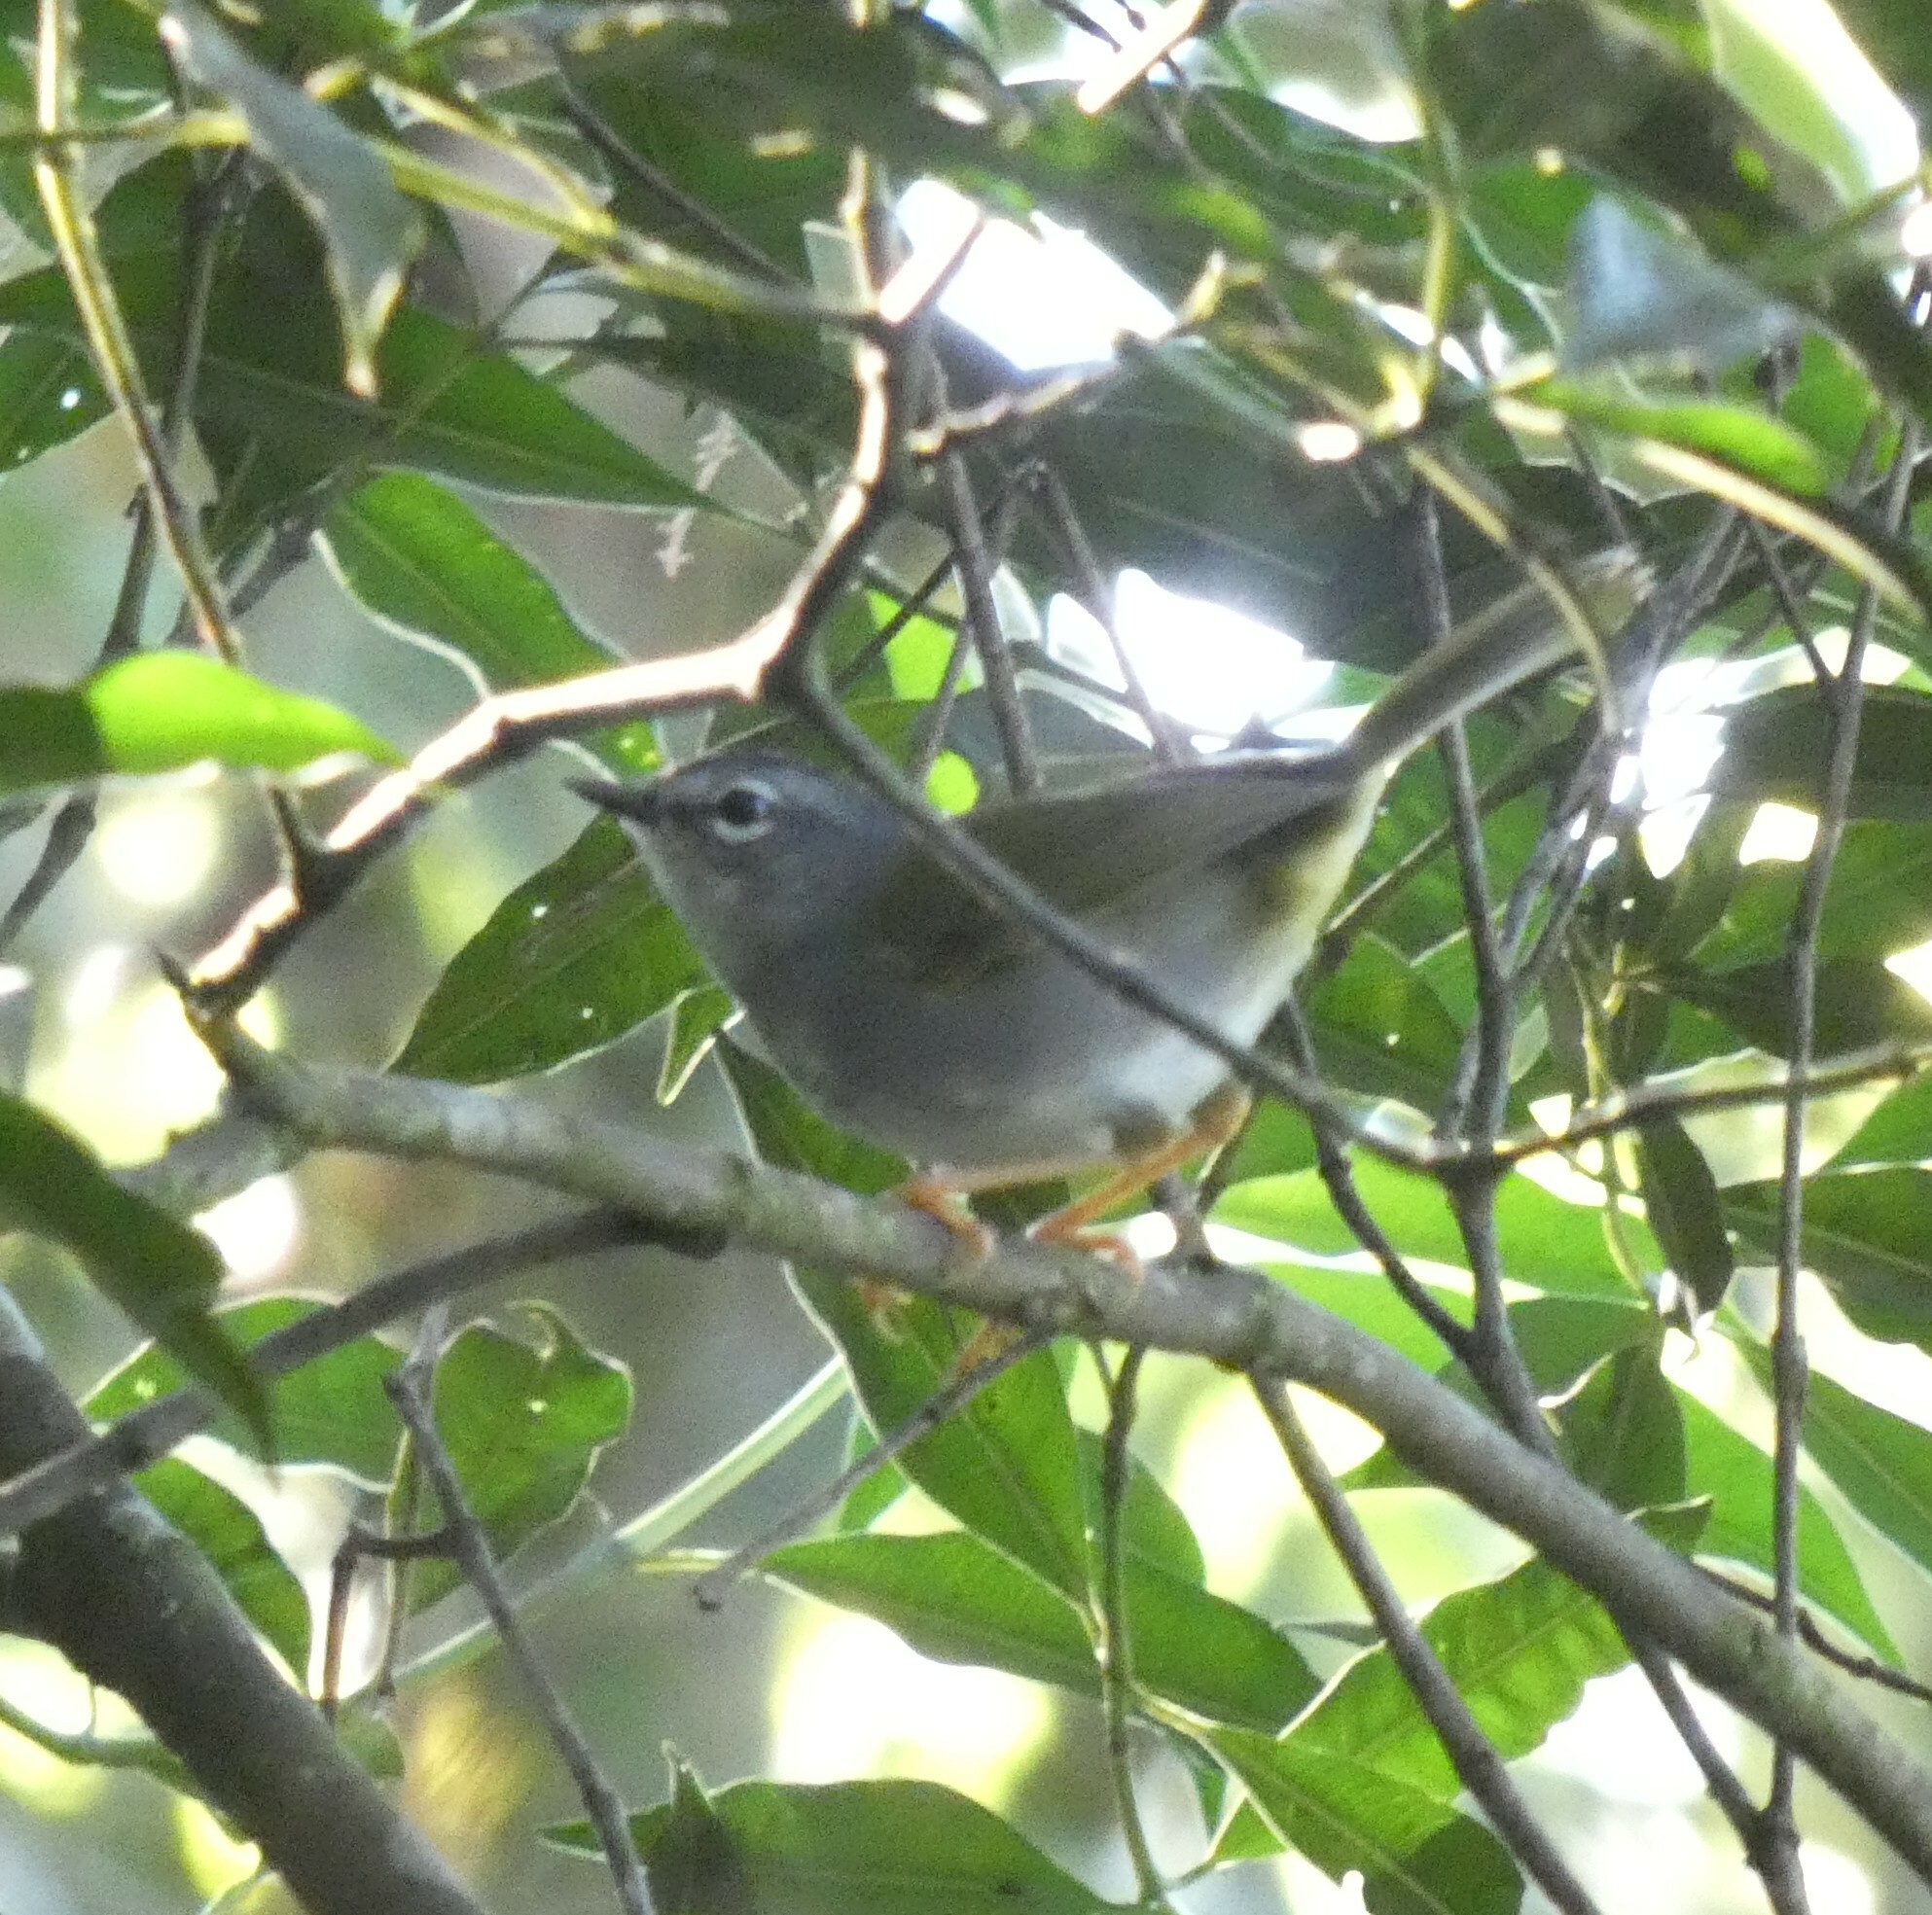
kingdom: Animalia
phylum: Chordata
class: Aves
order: Passeriformes
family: Parulidae
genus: Myiothlypis
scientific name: Myiothlypis leucoblephara
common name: White-rimmed warbler
